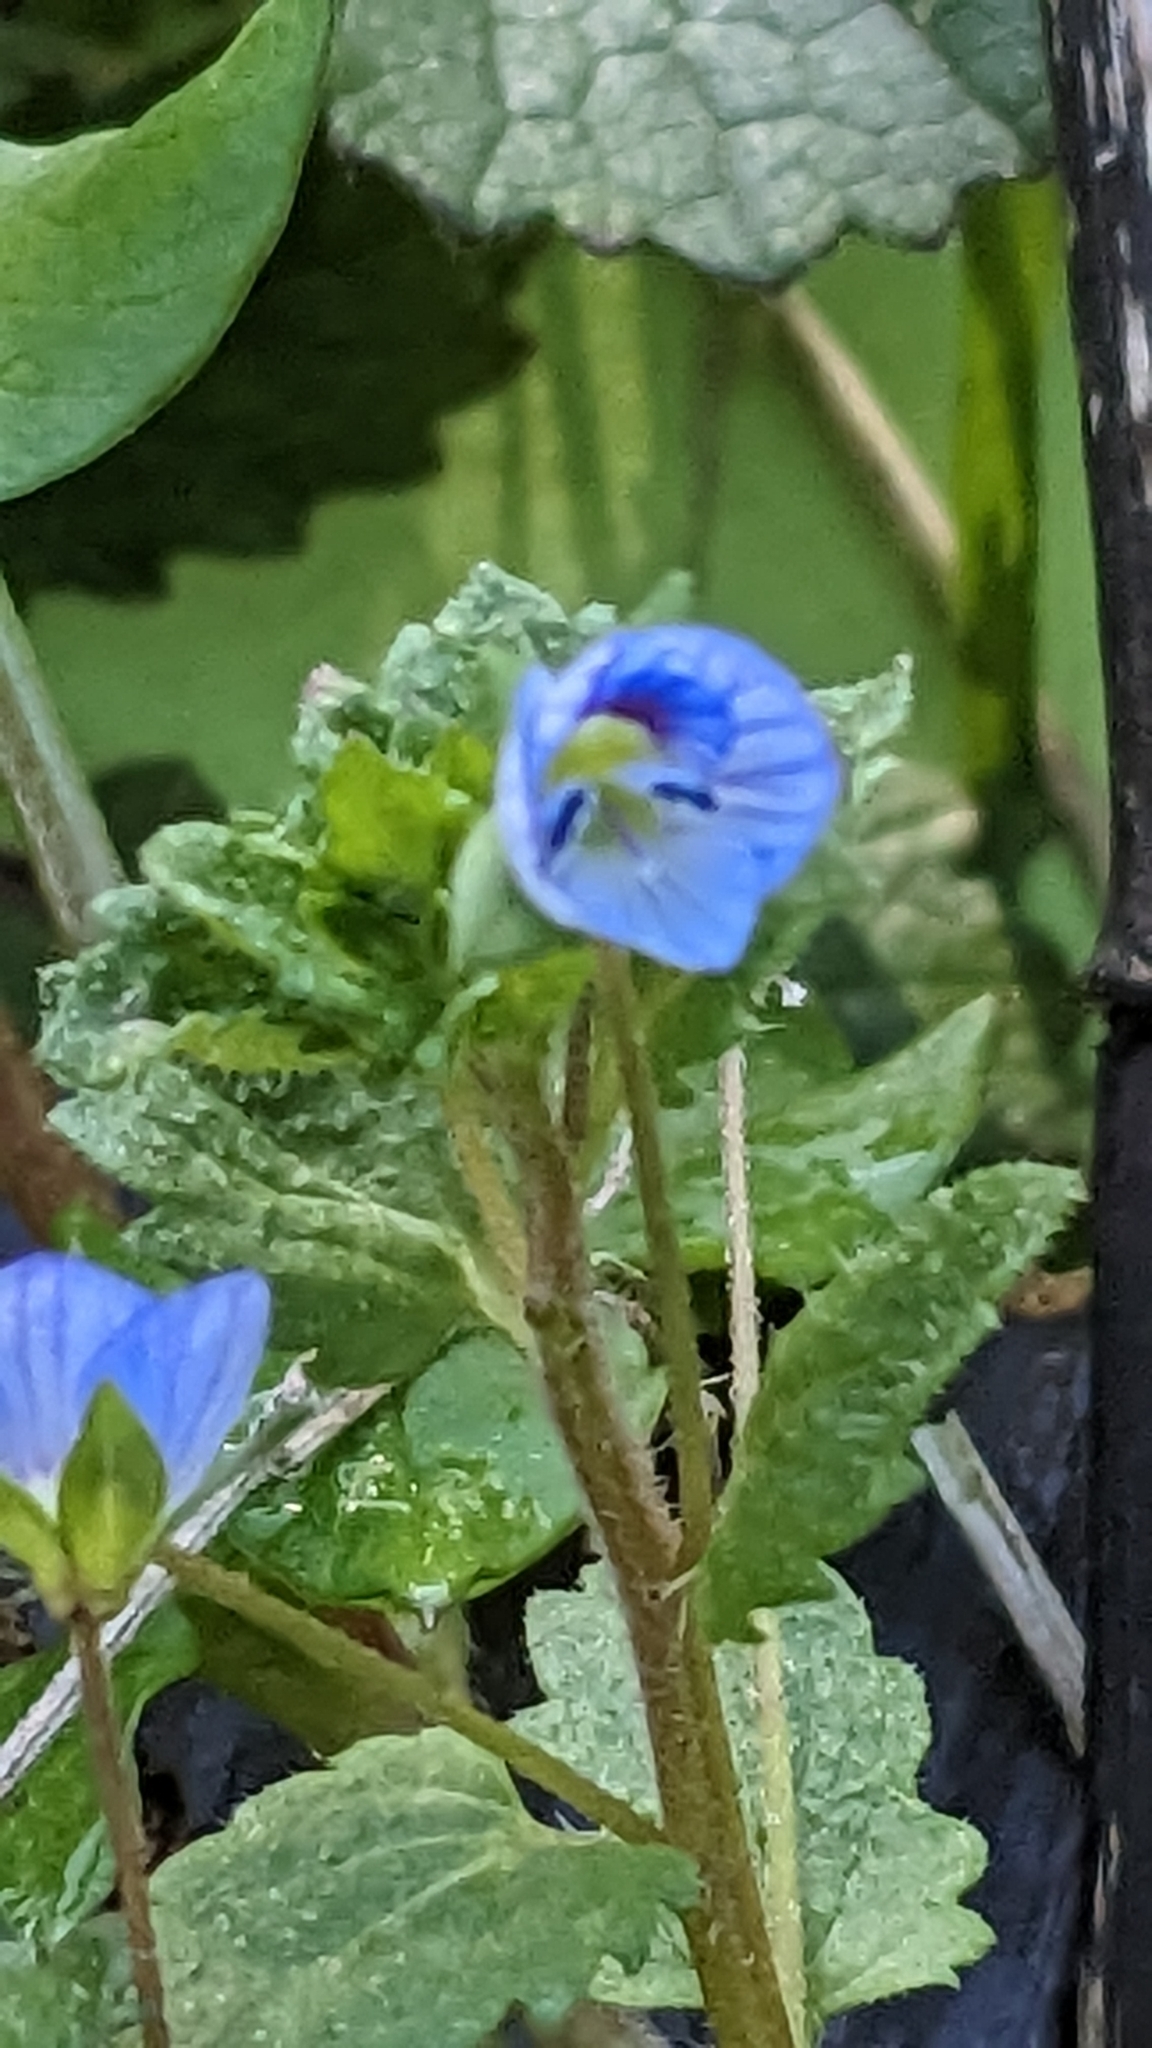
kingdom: Plantae
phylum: Tracheophyta
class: Magnoliopsida
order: Lamiales
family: Plantaginaceae
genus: Veronica
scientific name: Veronica persica
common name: Common field-speedwell
